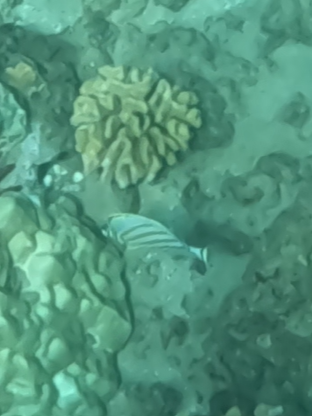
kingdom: Animalia
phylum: Chordata
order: Perciformes
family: Chaetodontidae
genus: Chaetodon
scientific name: Chaetodon ornatissimus
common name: Ornate butterflyfish
